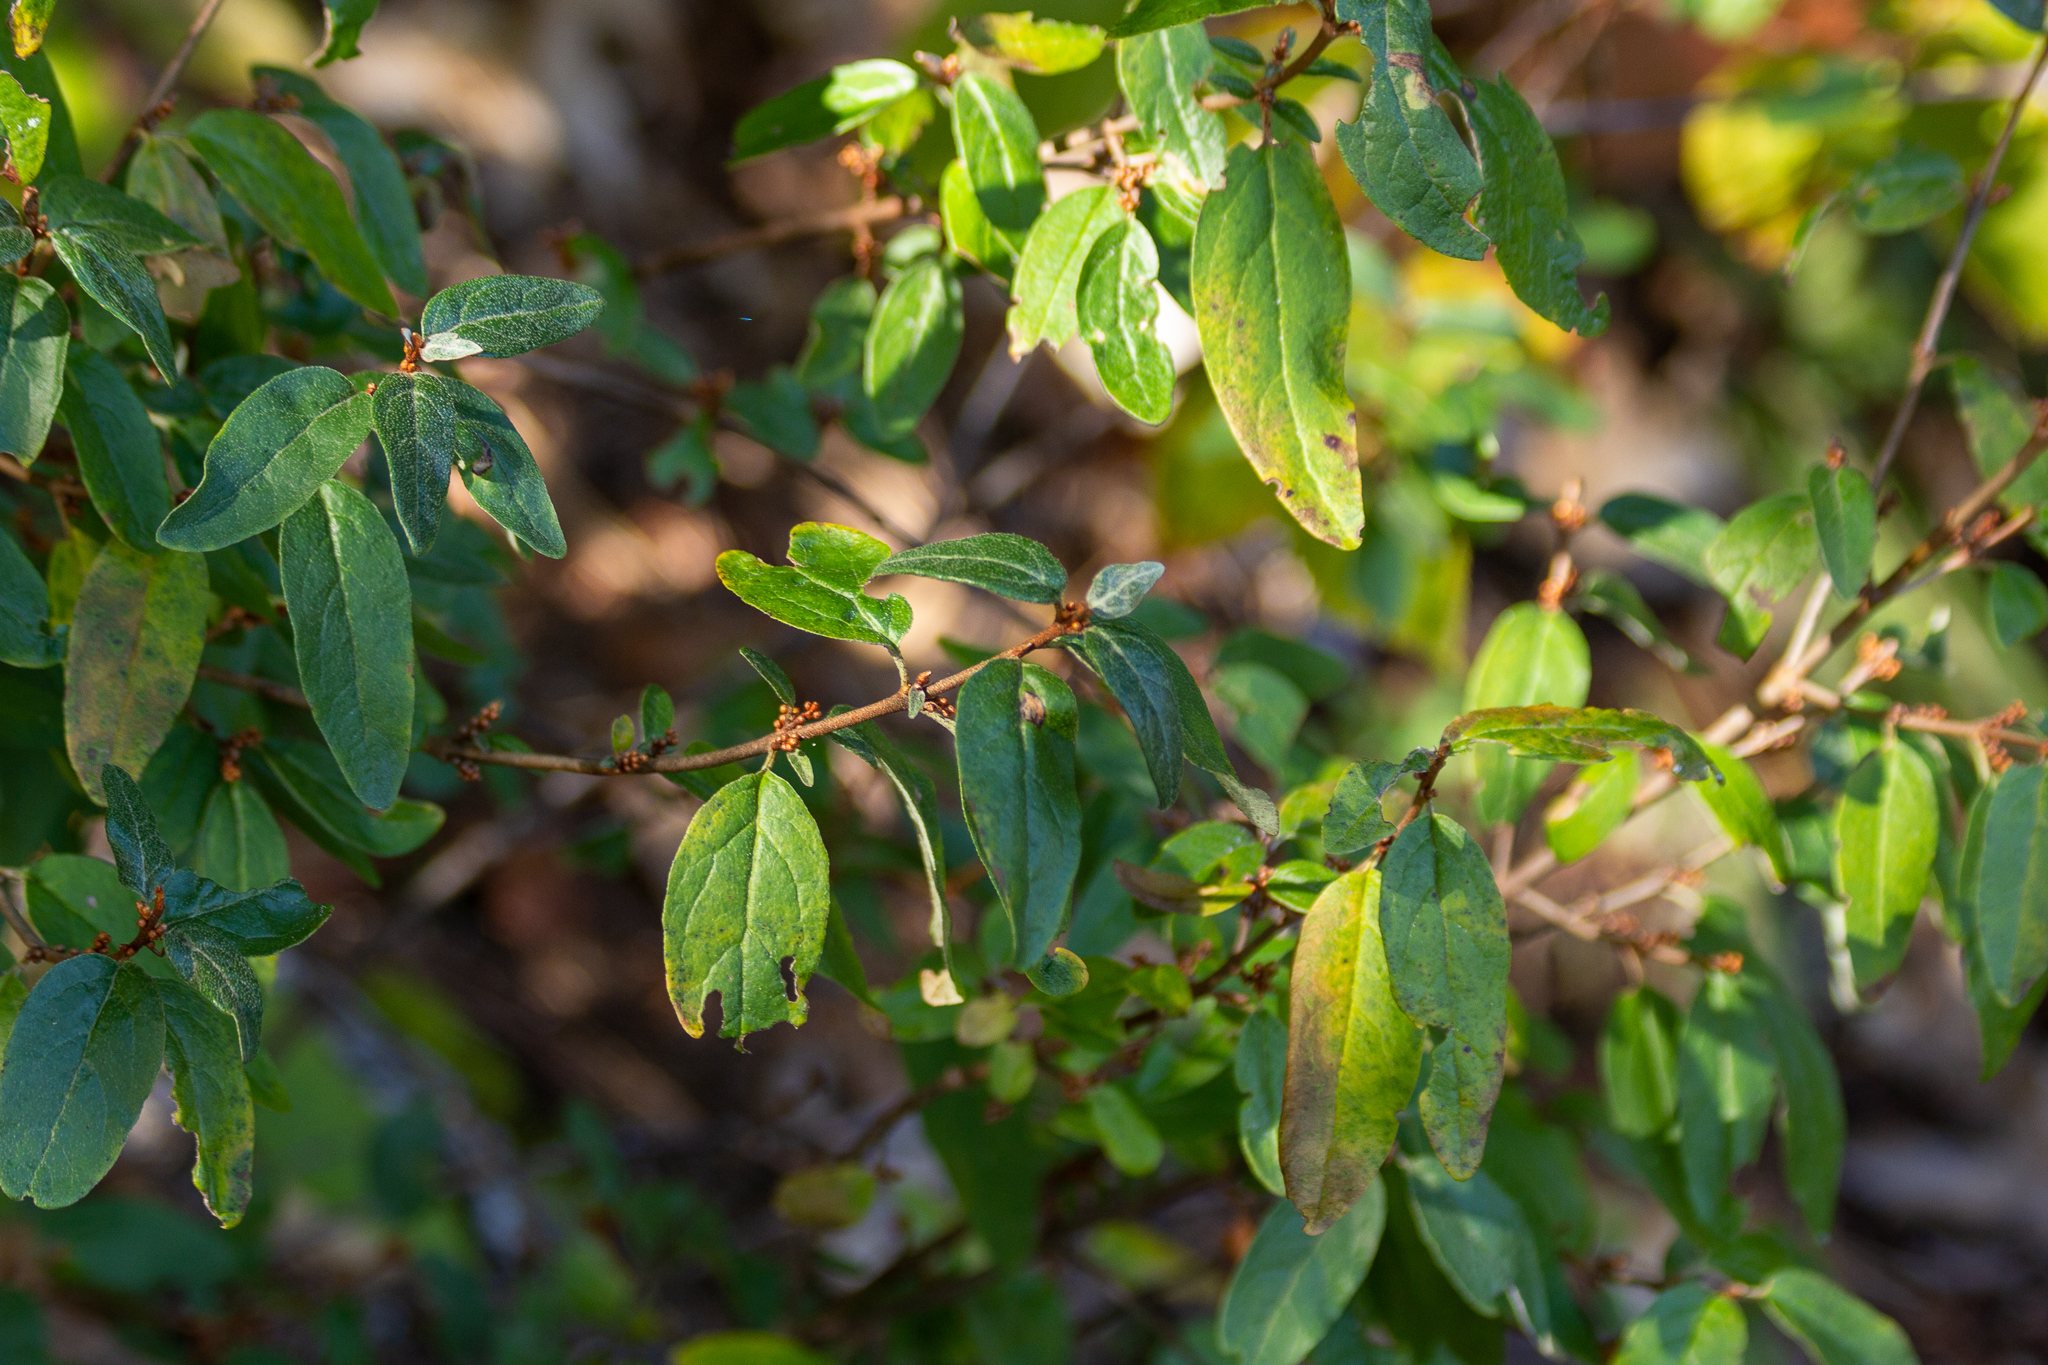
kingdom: Plantae
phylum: Tracheophyta
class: Magnoliopsida
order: Rosales
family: Elaeagnaceae
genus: Shepherdia
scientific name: Shepherdia canadensis
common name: Soapberry
